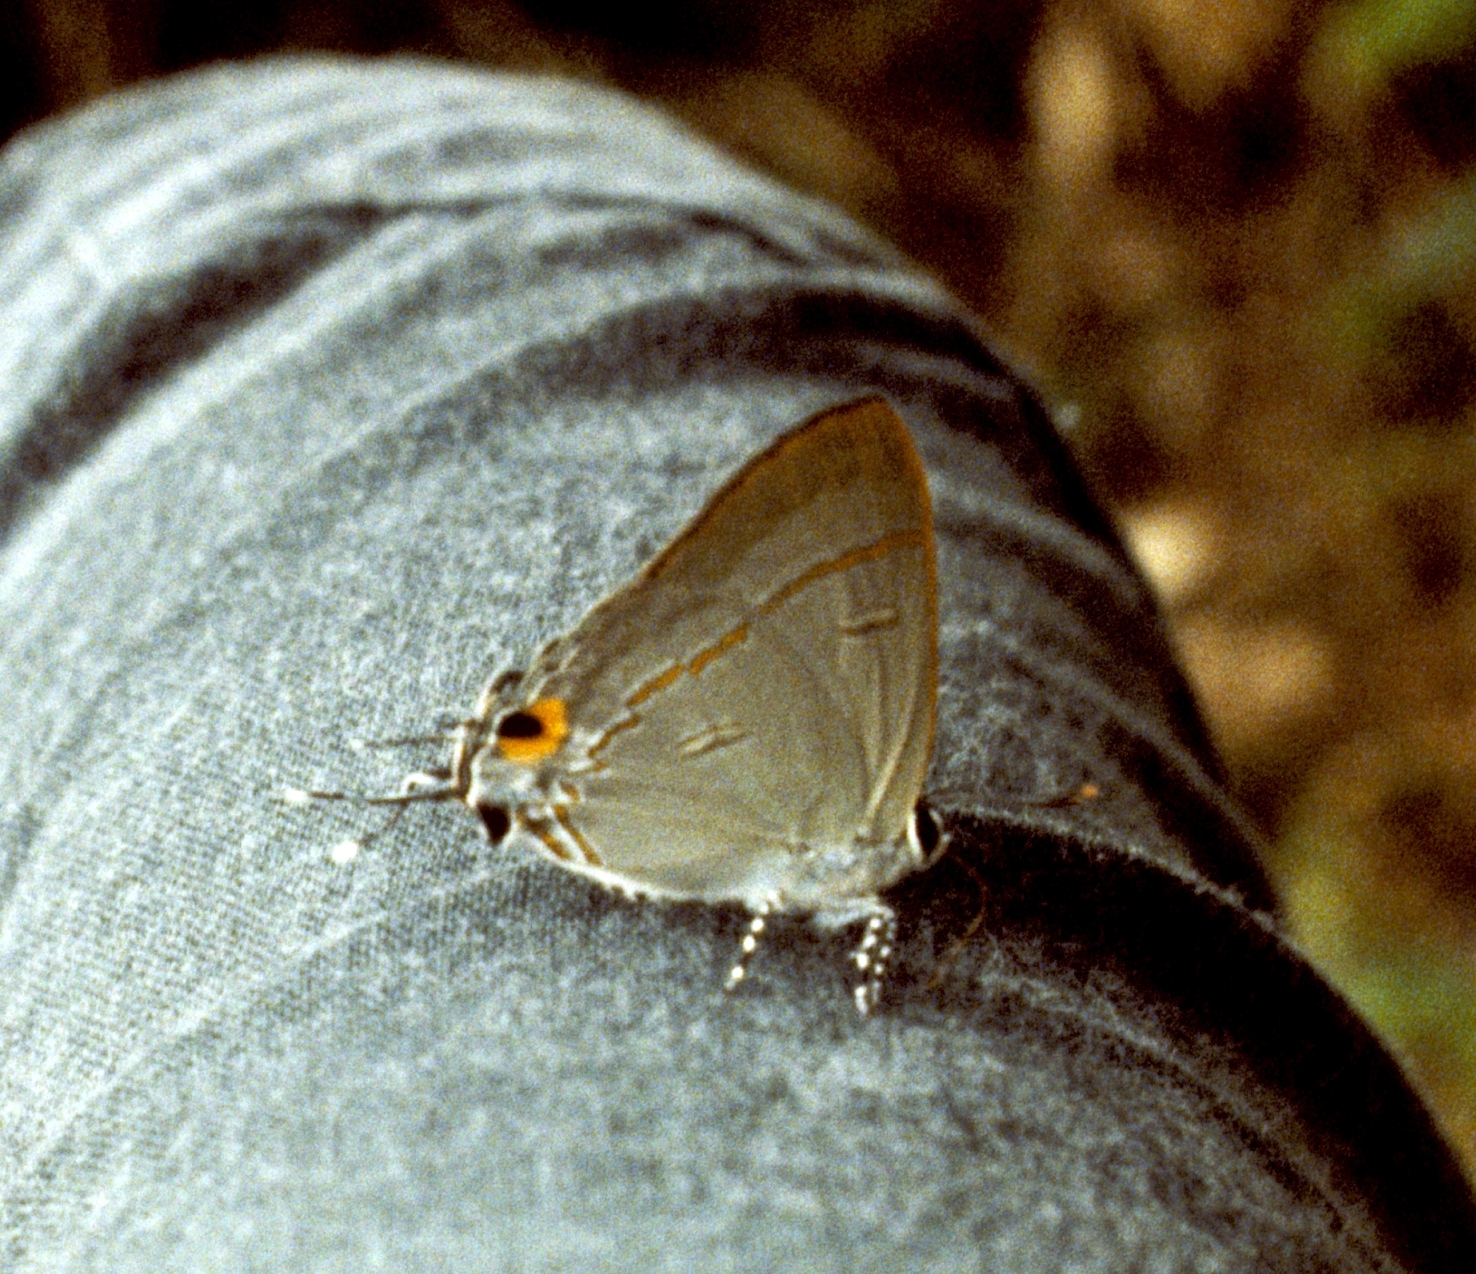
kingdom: Animalia
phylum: Arthropoda
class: Insecta
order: Lepidoptera
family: Lycaenidae
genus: Hypolycaena
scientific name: Hypolycaena erylus
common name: Common tit
